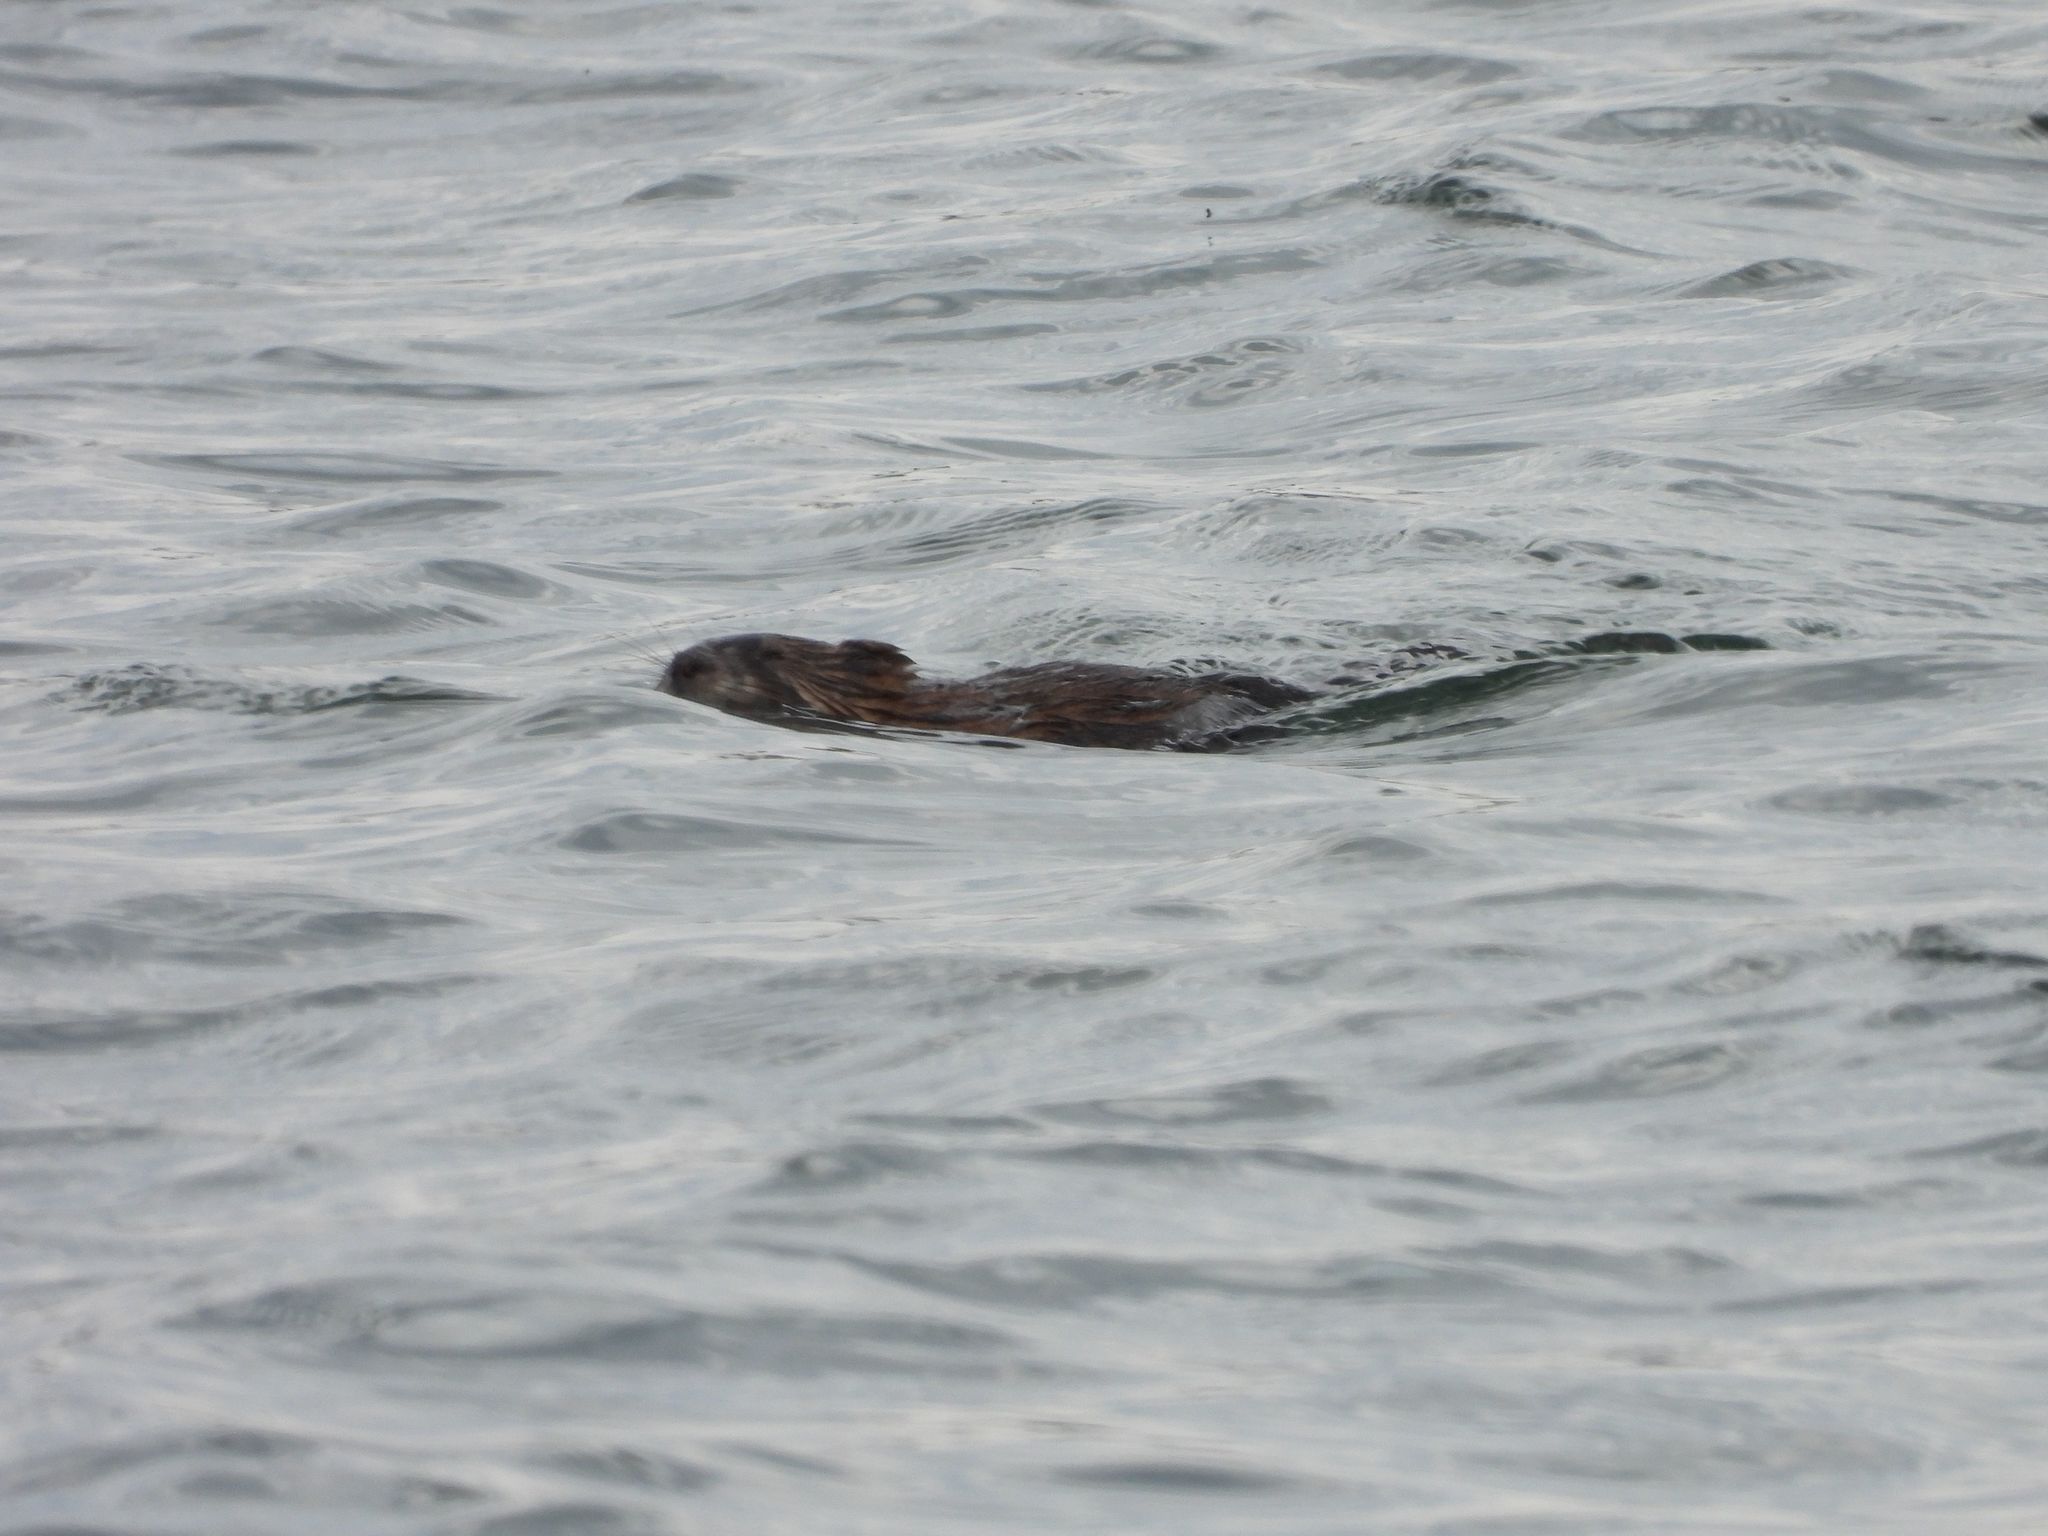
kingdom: Animalia
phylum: Chordata
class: Mammalia
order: Rodentia
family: Cricetidae
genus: Ondatra
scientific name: Ondatra zibethicus
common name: Muskrat
